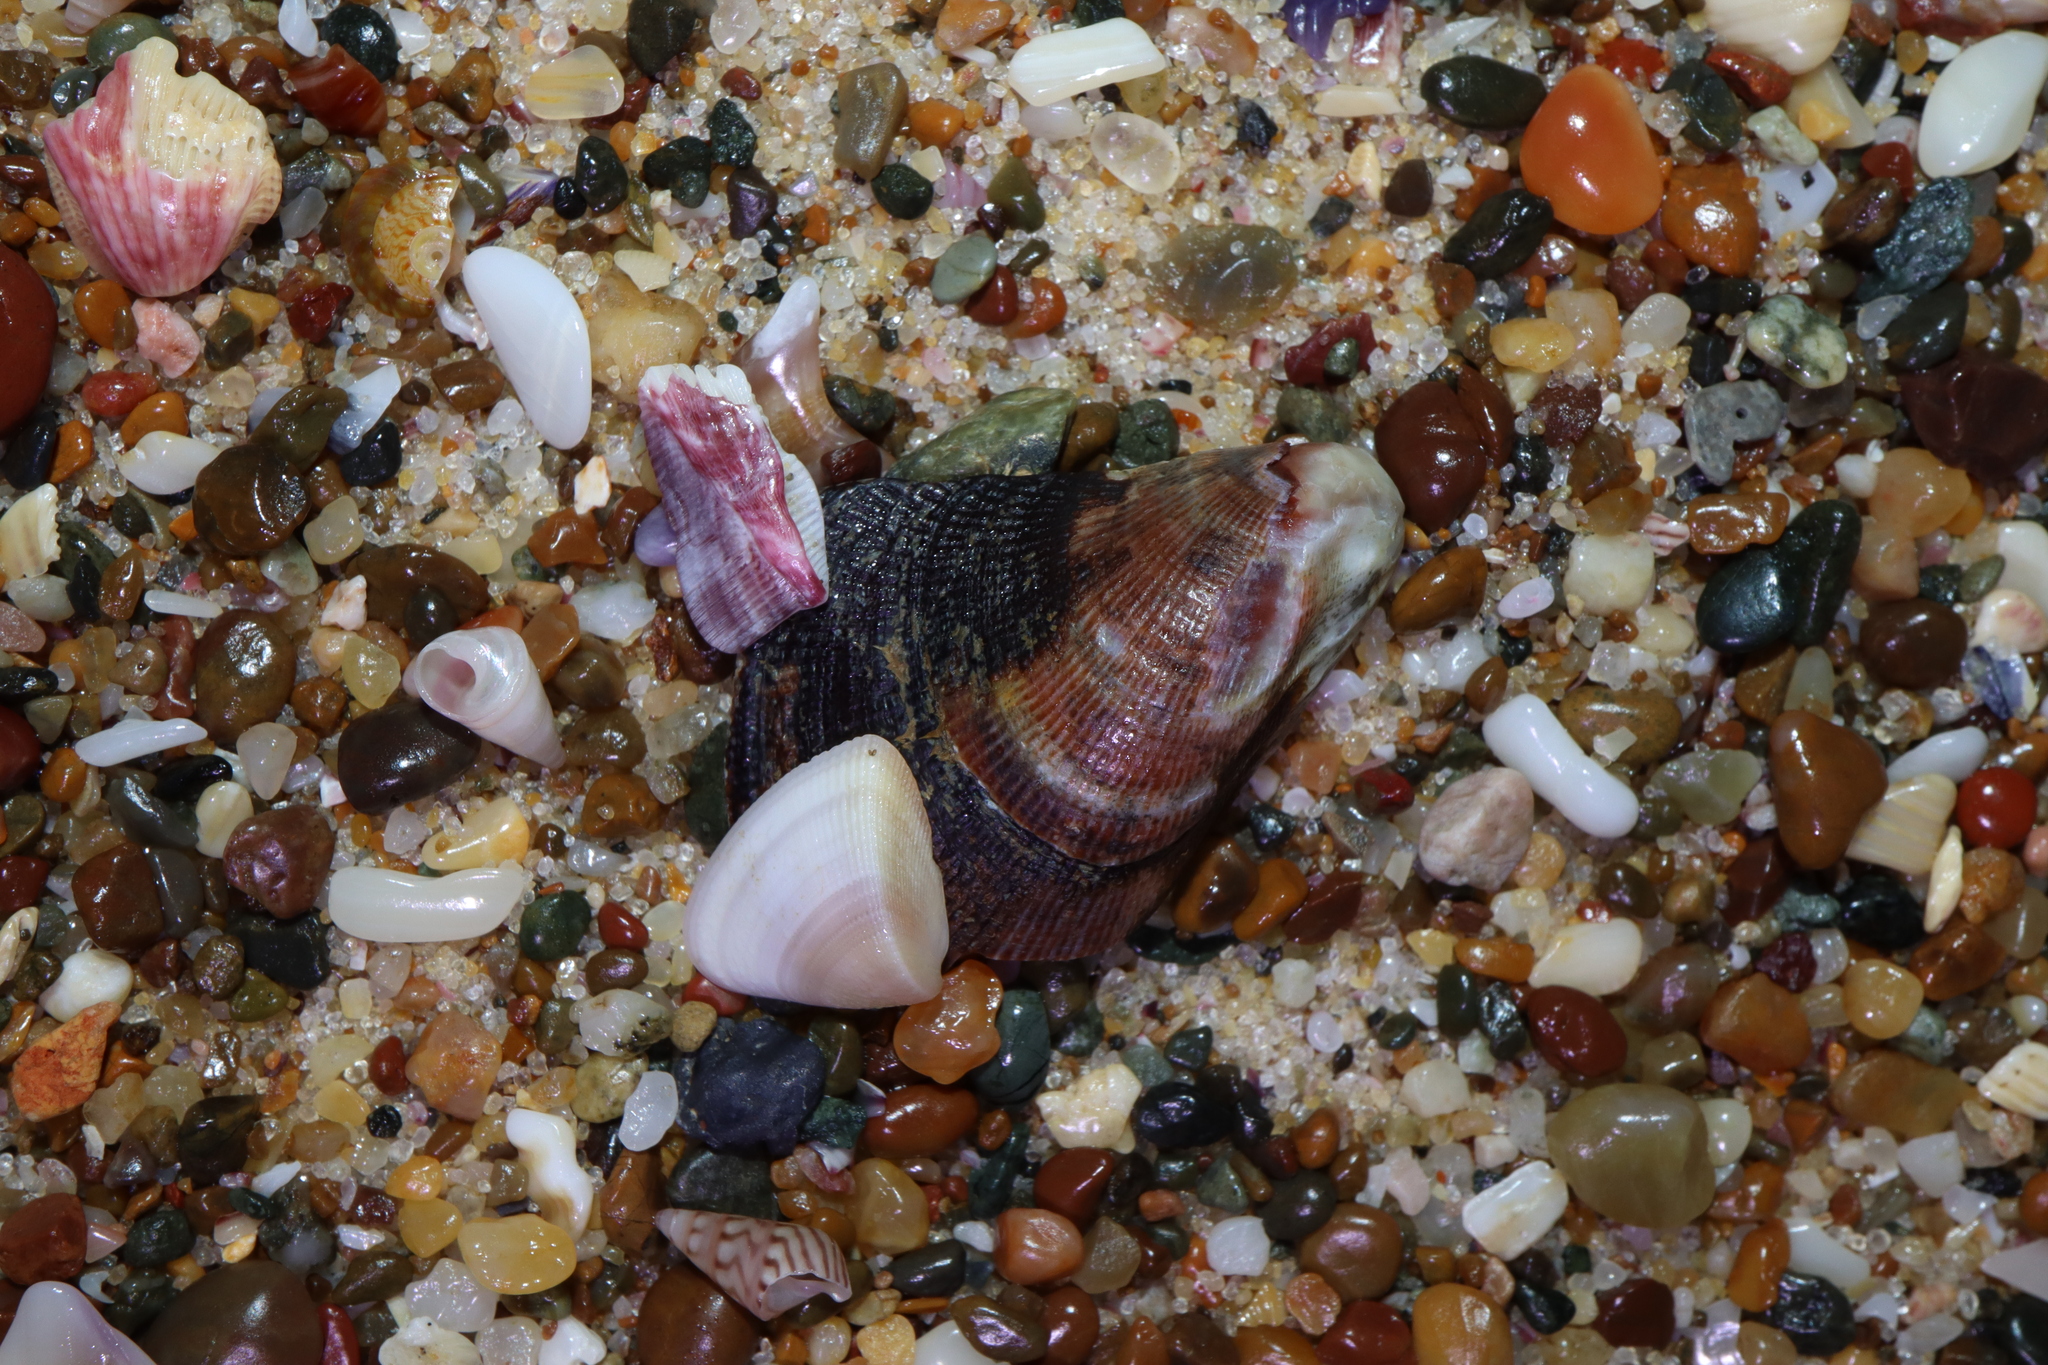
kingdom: Animalia
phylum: Mollusca
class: Bivalvia
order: Mytilida
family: Mytilidae
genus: Trichomya
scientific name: Trichomya hirsuta
